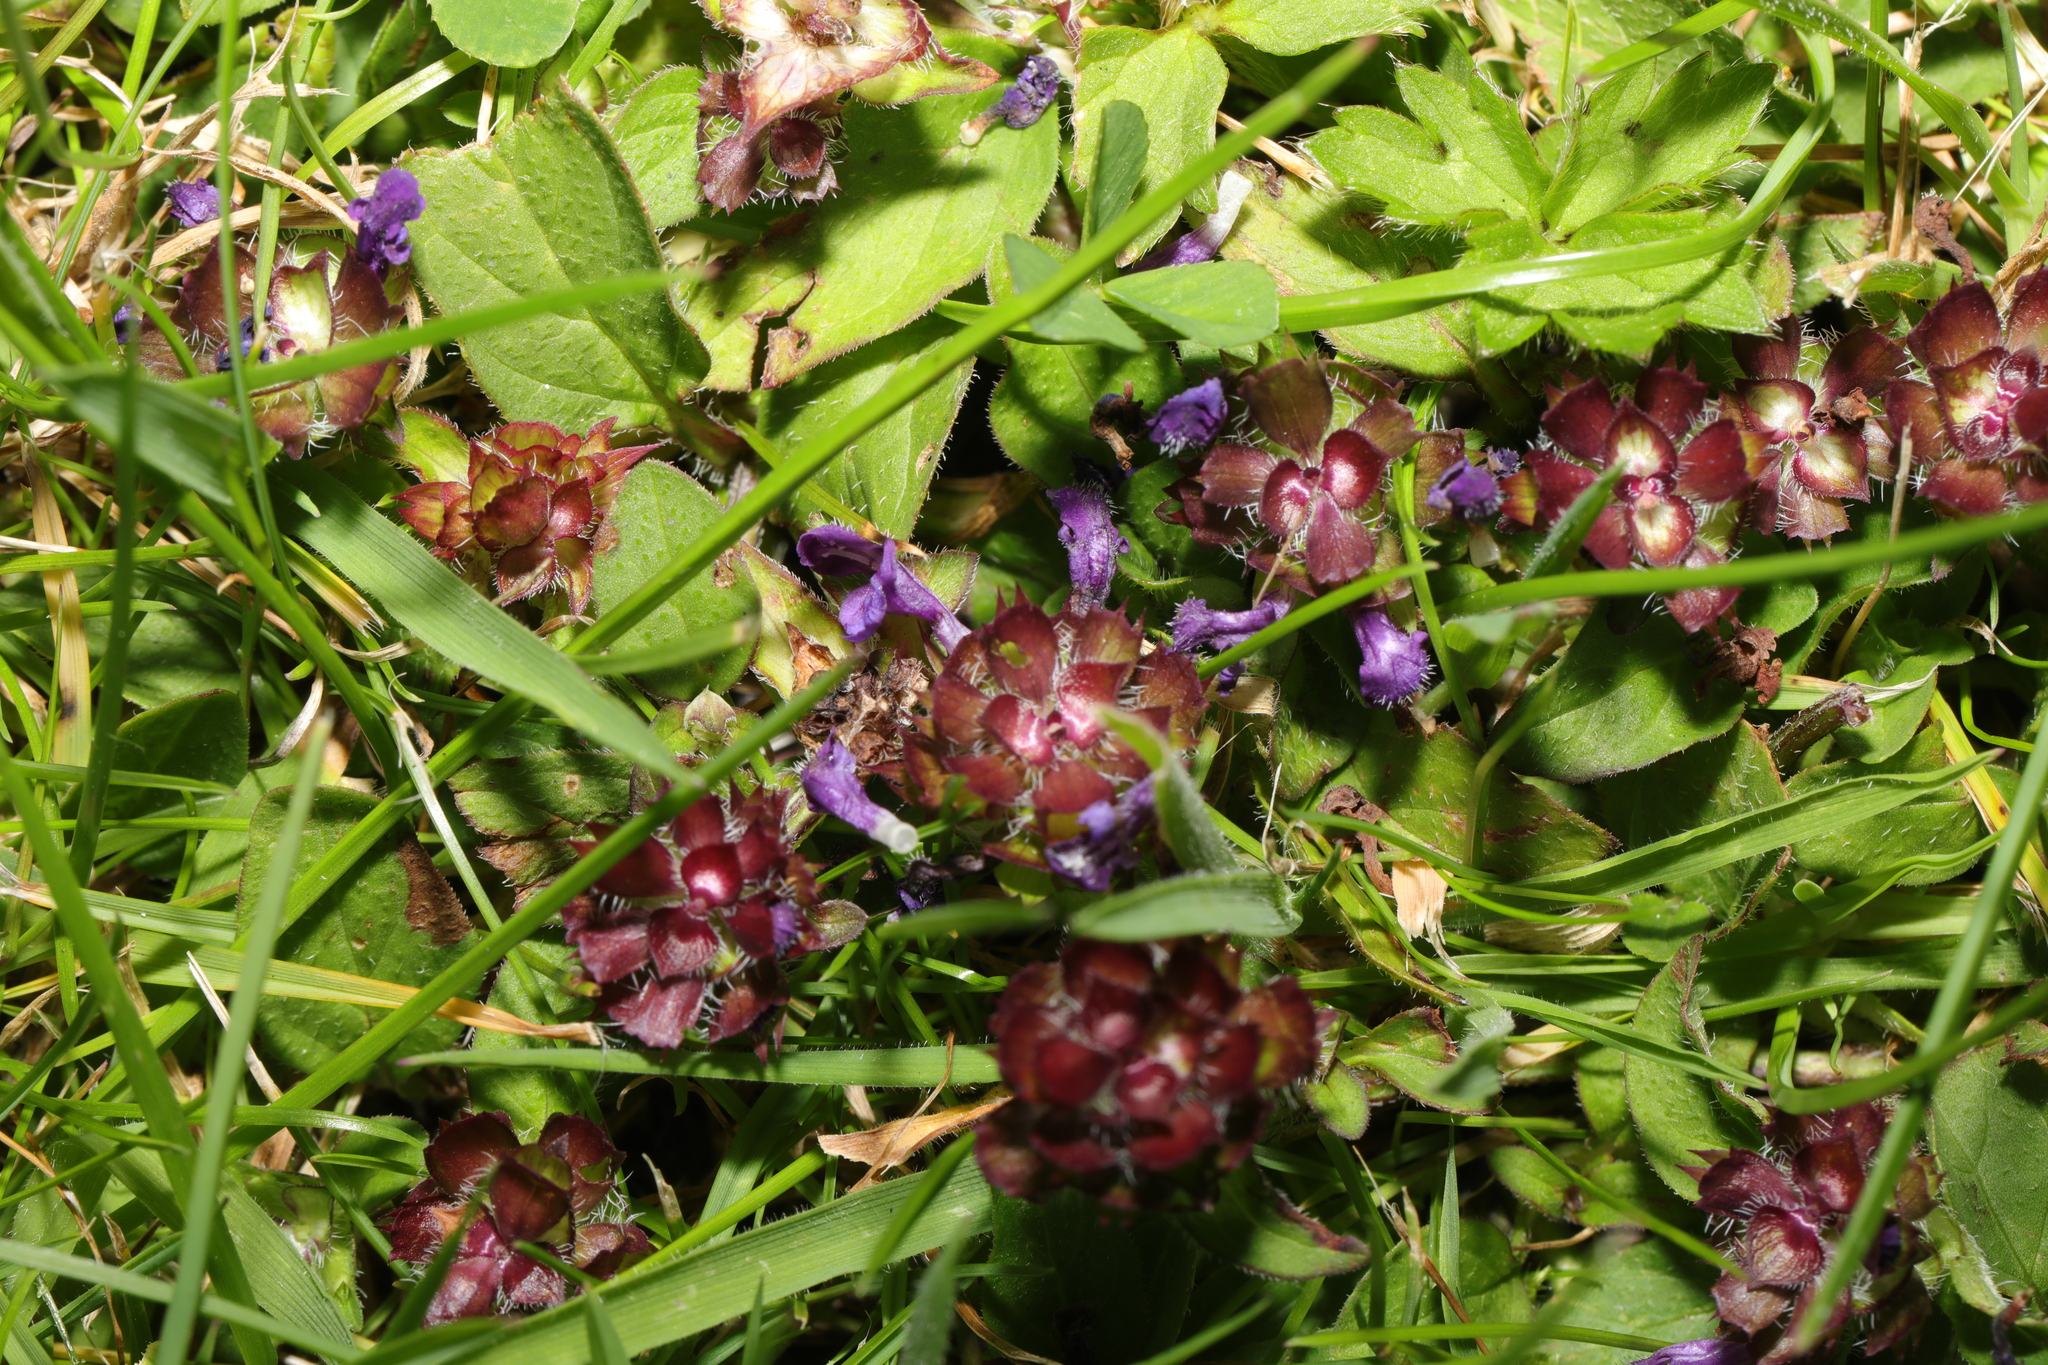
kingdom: Plantae
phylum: Tracheophyta
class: Magnoliopsida
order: Lamiales
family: Lamiaceae
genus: Prunella
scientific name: Prunella vulgaris
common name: Heal-all
